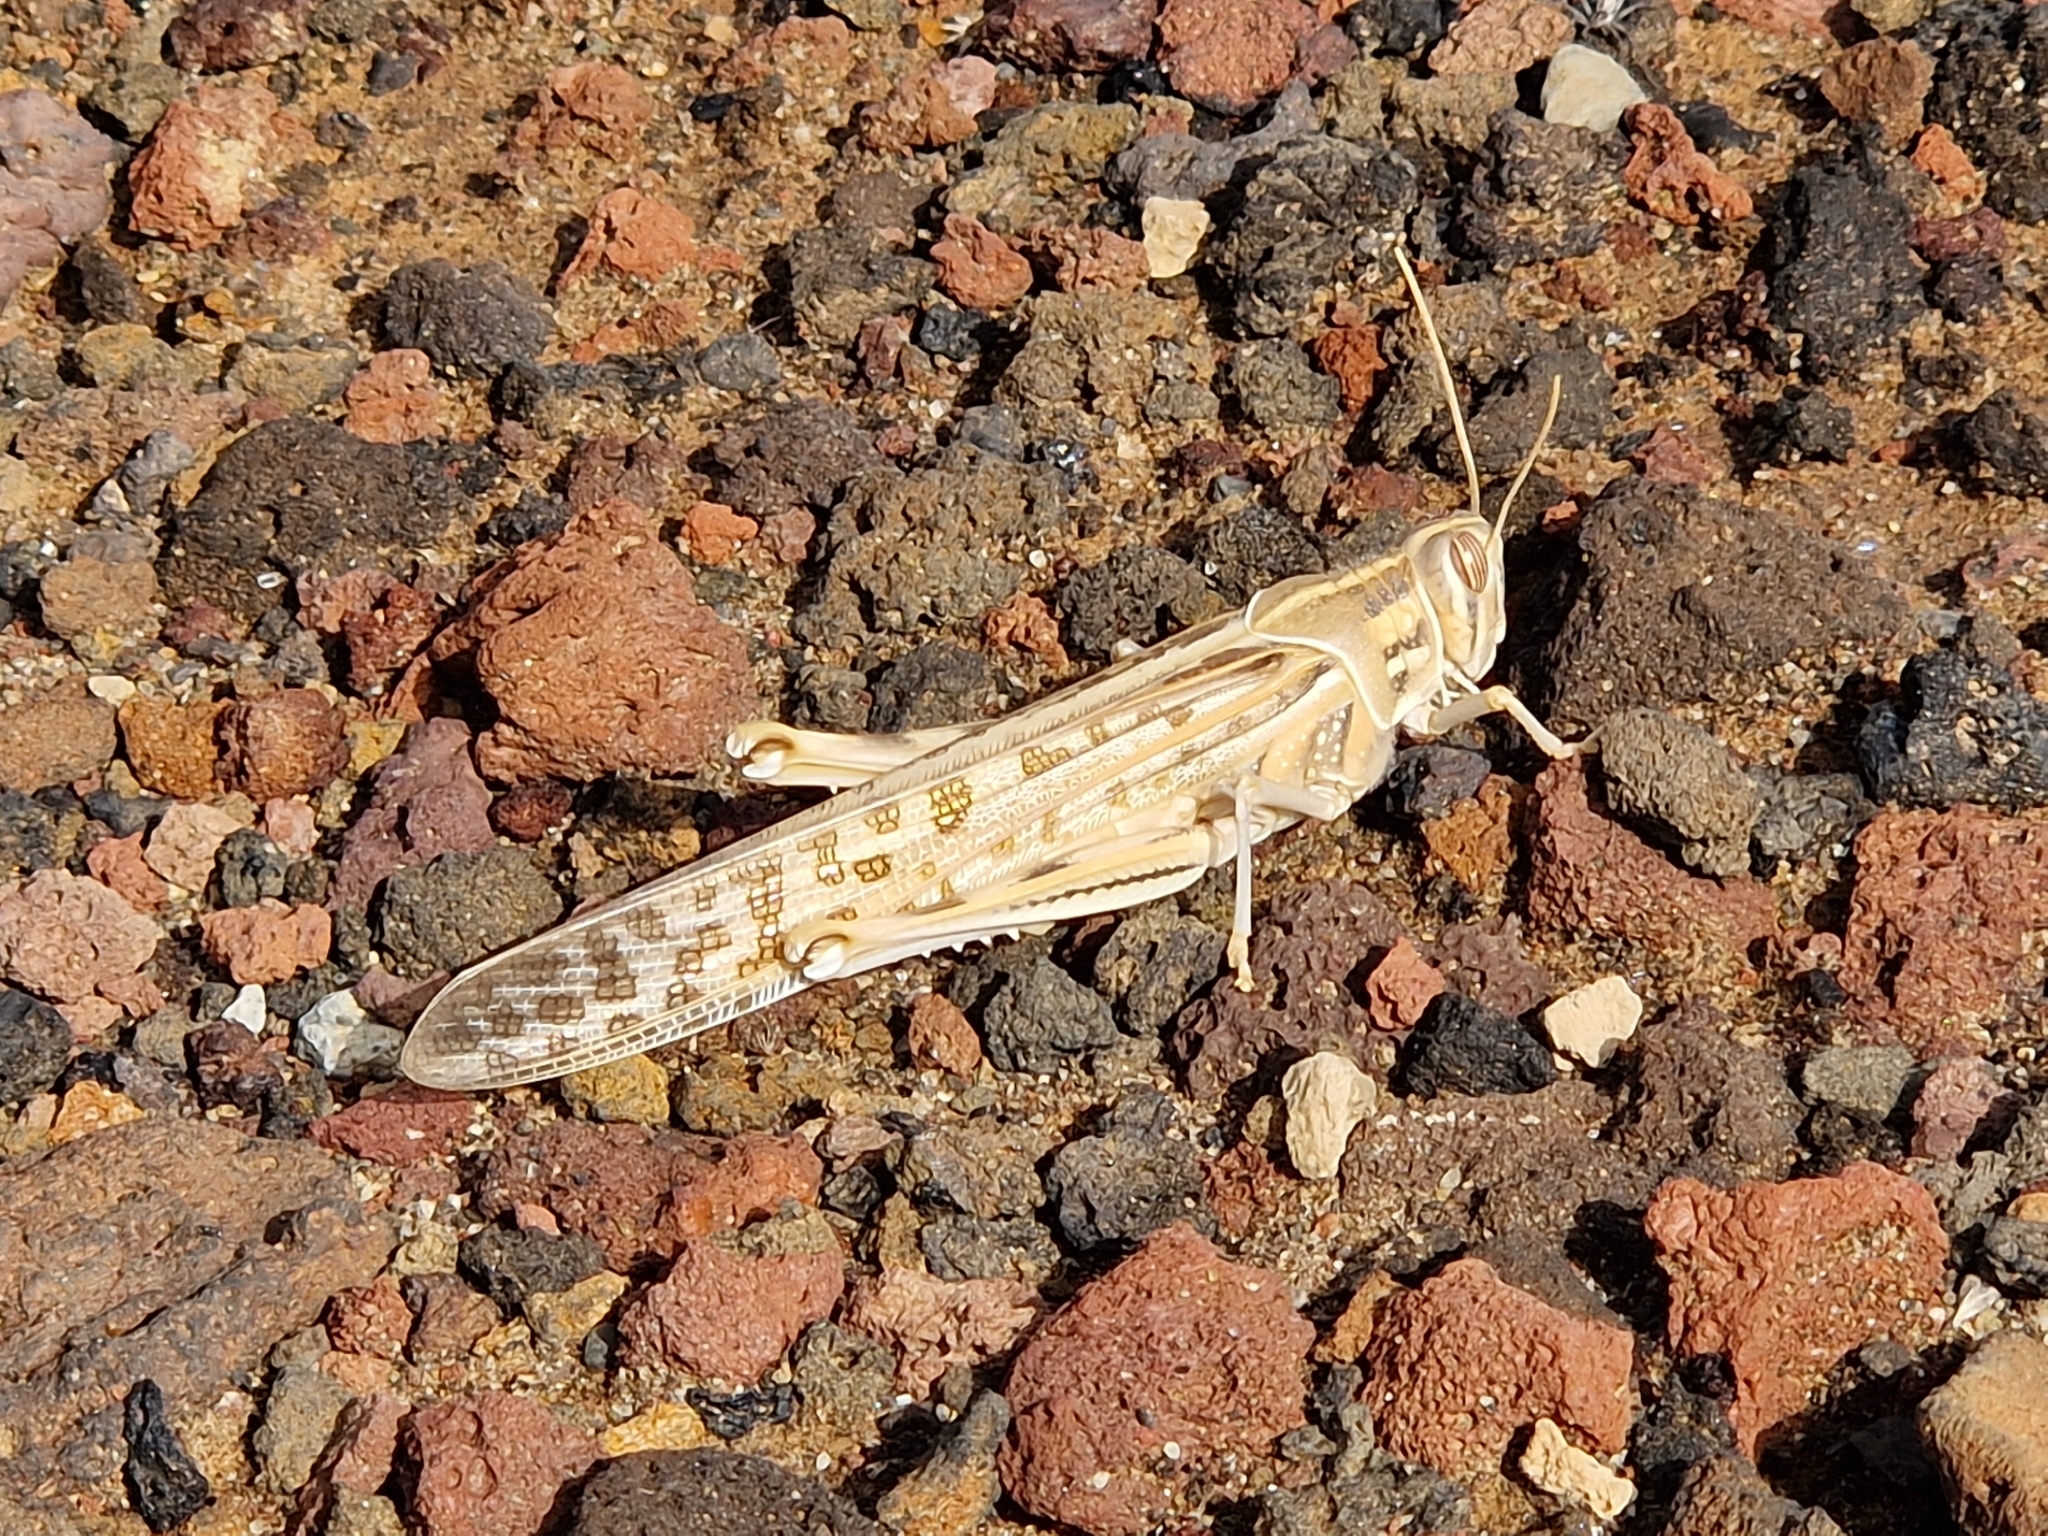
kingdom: Animalia
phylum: Arthropoda
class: Insecta
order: Orthoptera
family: Acrididae
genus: Schistocerca
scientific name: Schistocerca gregaria
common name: Desert locust
